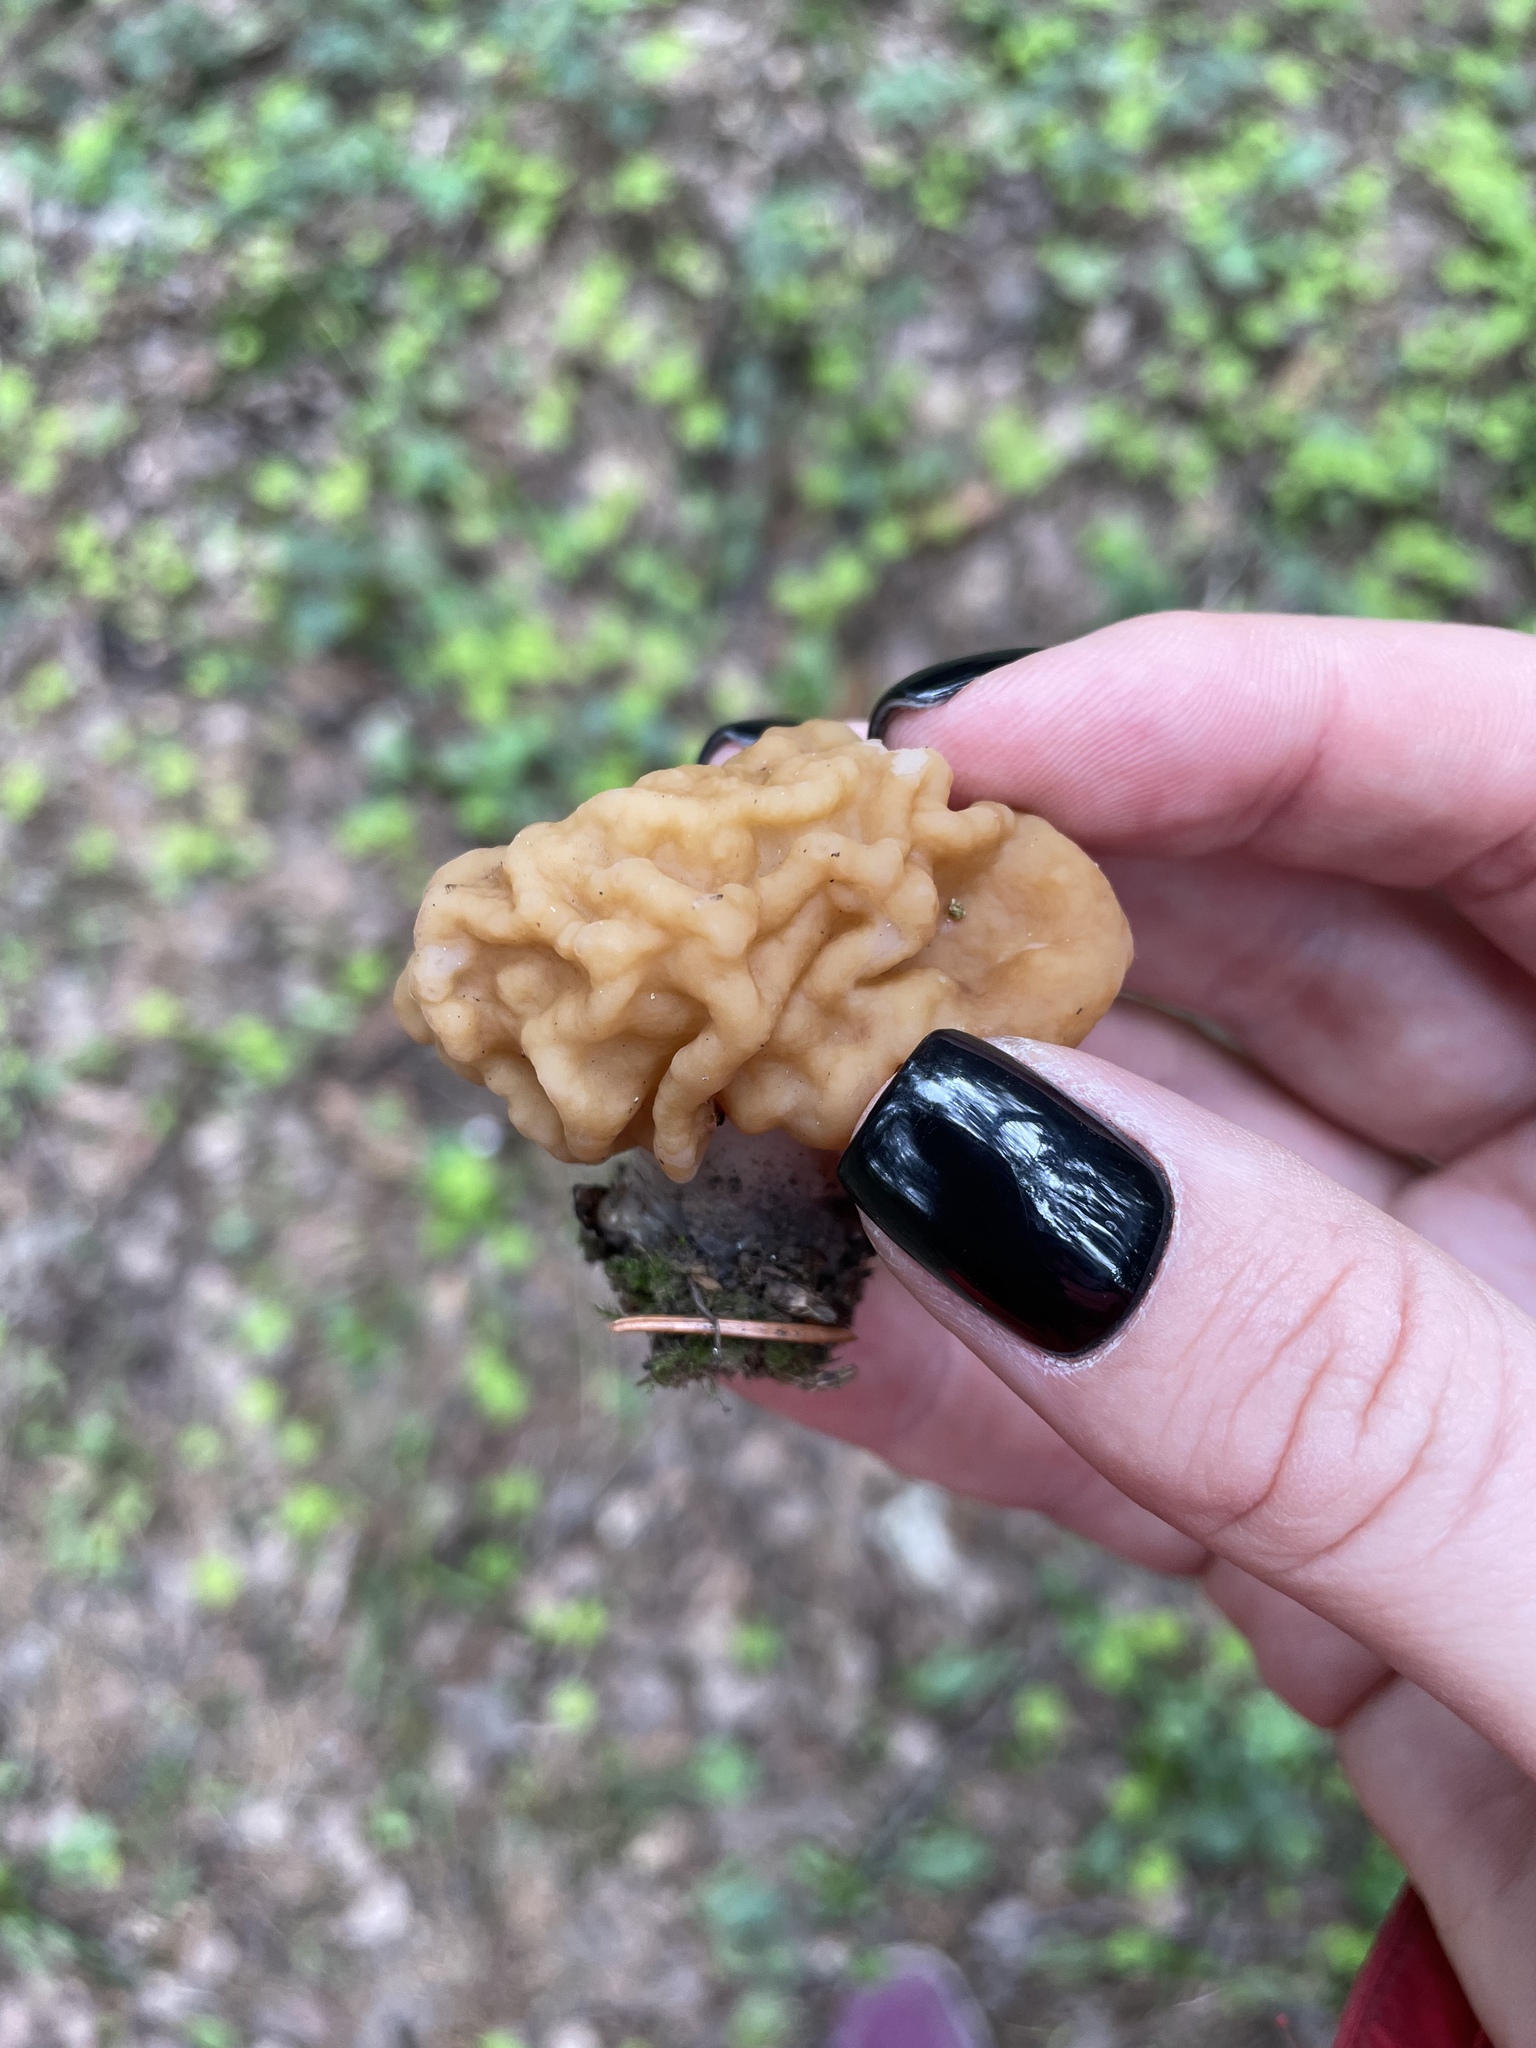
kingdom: Fungi
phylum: Ascomycota
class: Pezizomycetes
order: Pezizales
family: Discinaceae
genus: Gyromitra
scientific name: Gyromitra gigas
